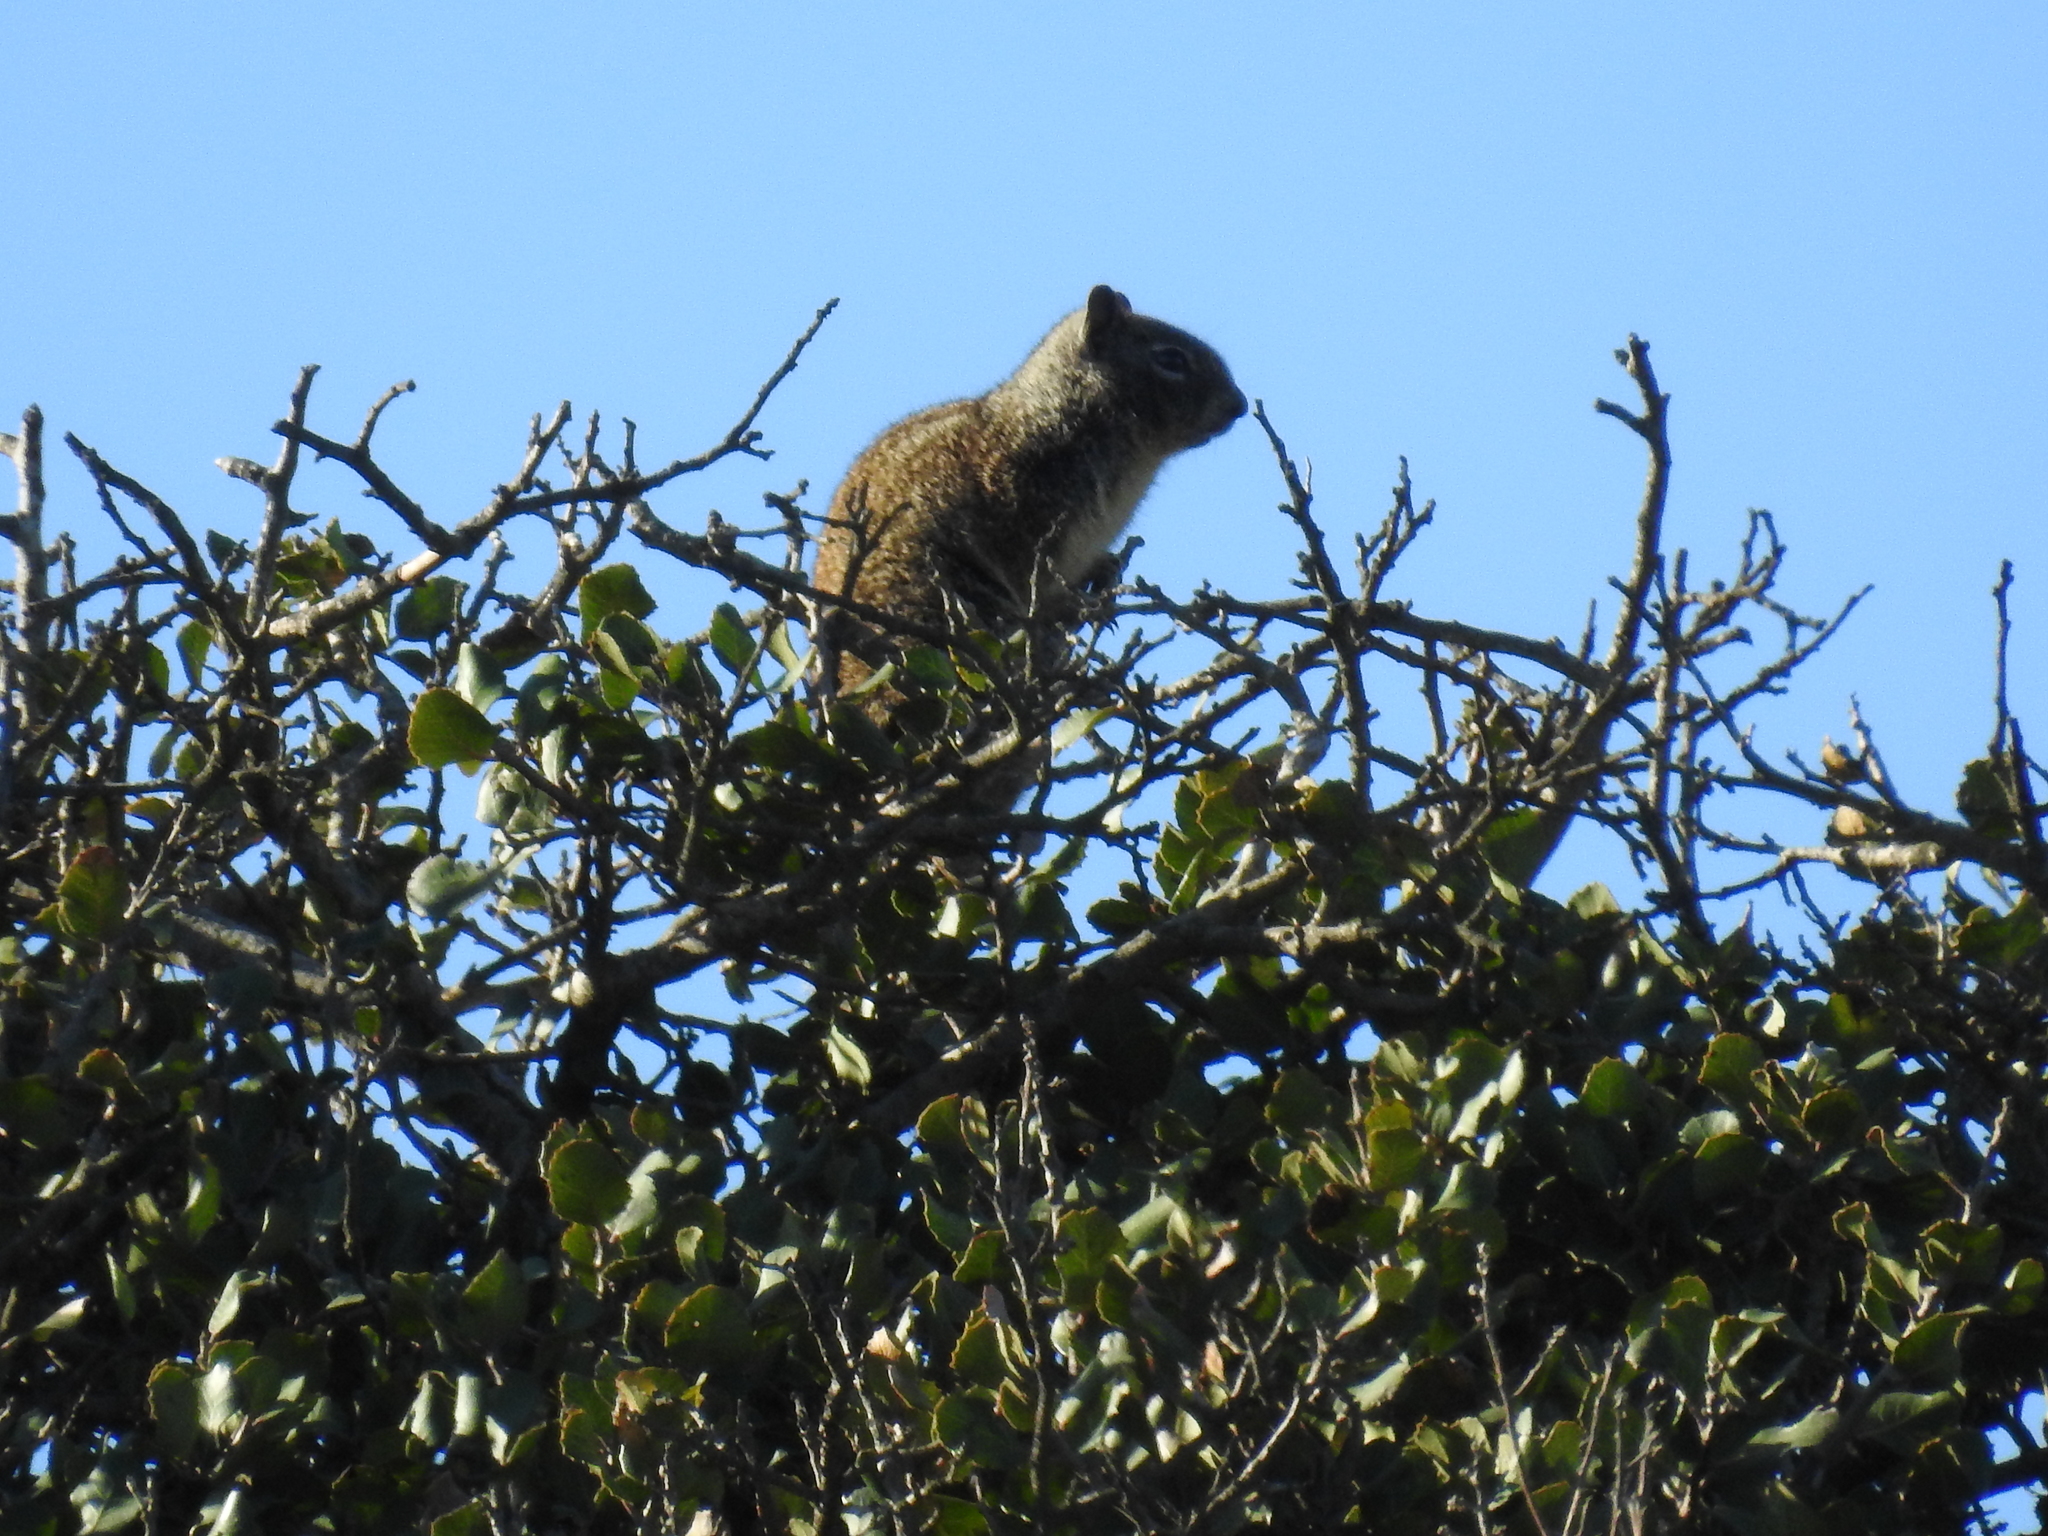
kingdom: Animalia
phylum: Chordata
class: Mammalia
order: Rodentia
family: Sciuridae
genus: Otospermophilus
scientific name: Otospermophilus beecheyi
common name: California ground squirrel
